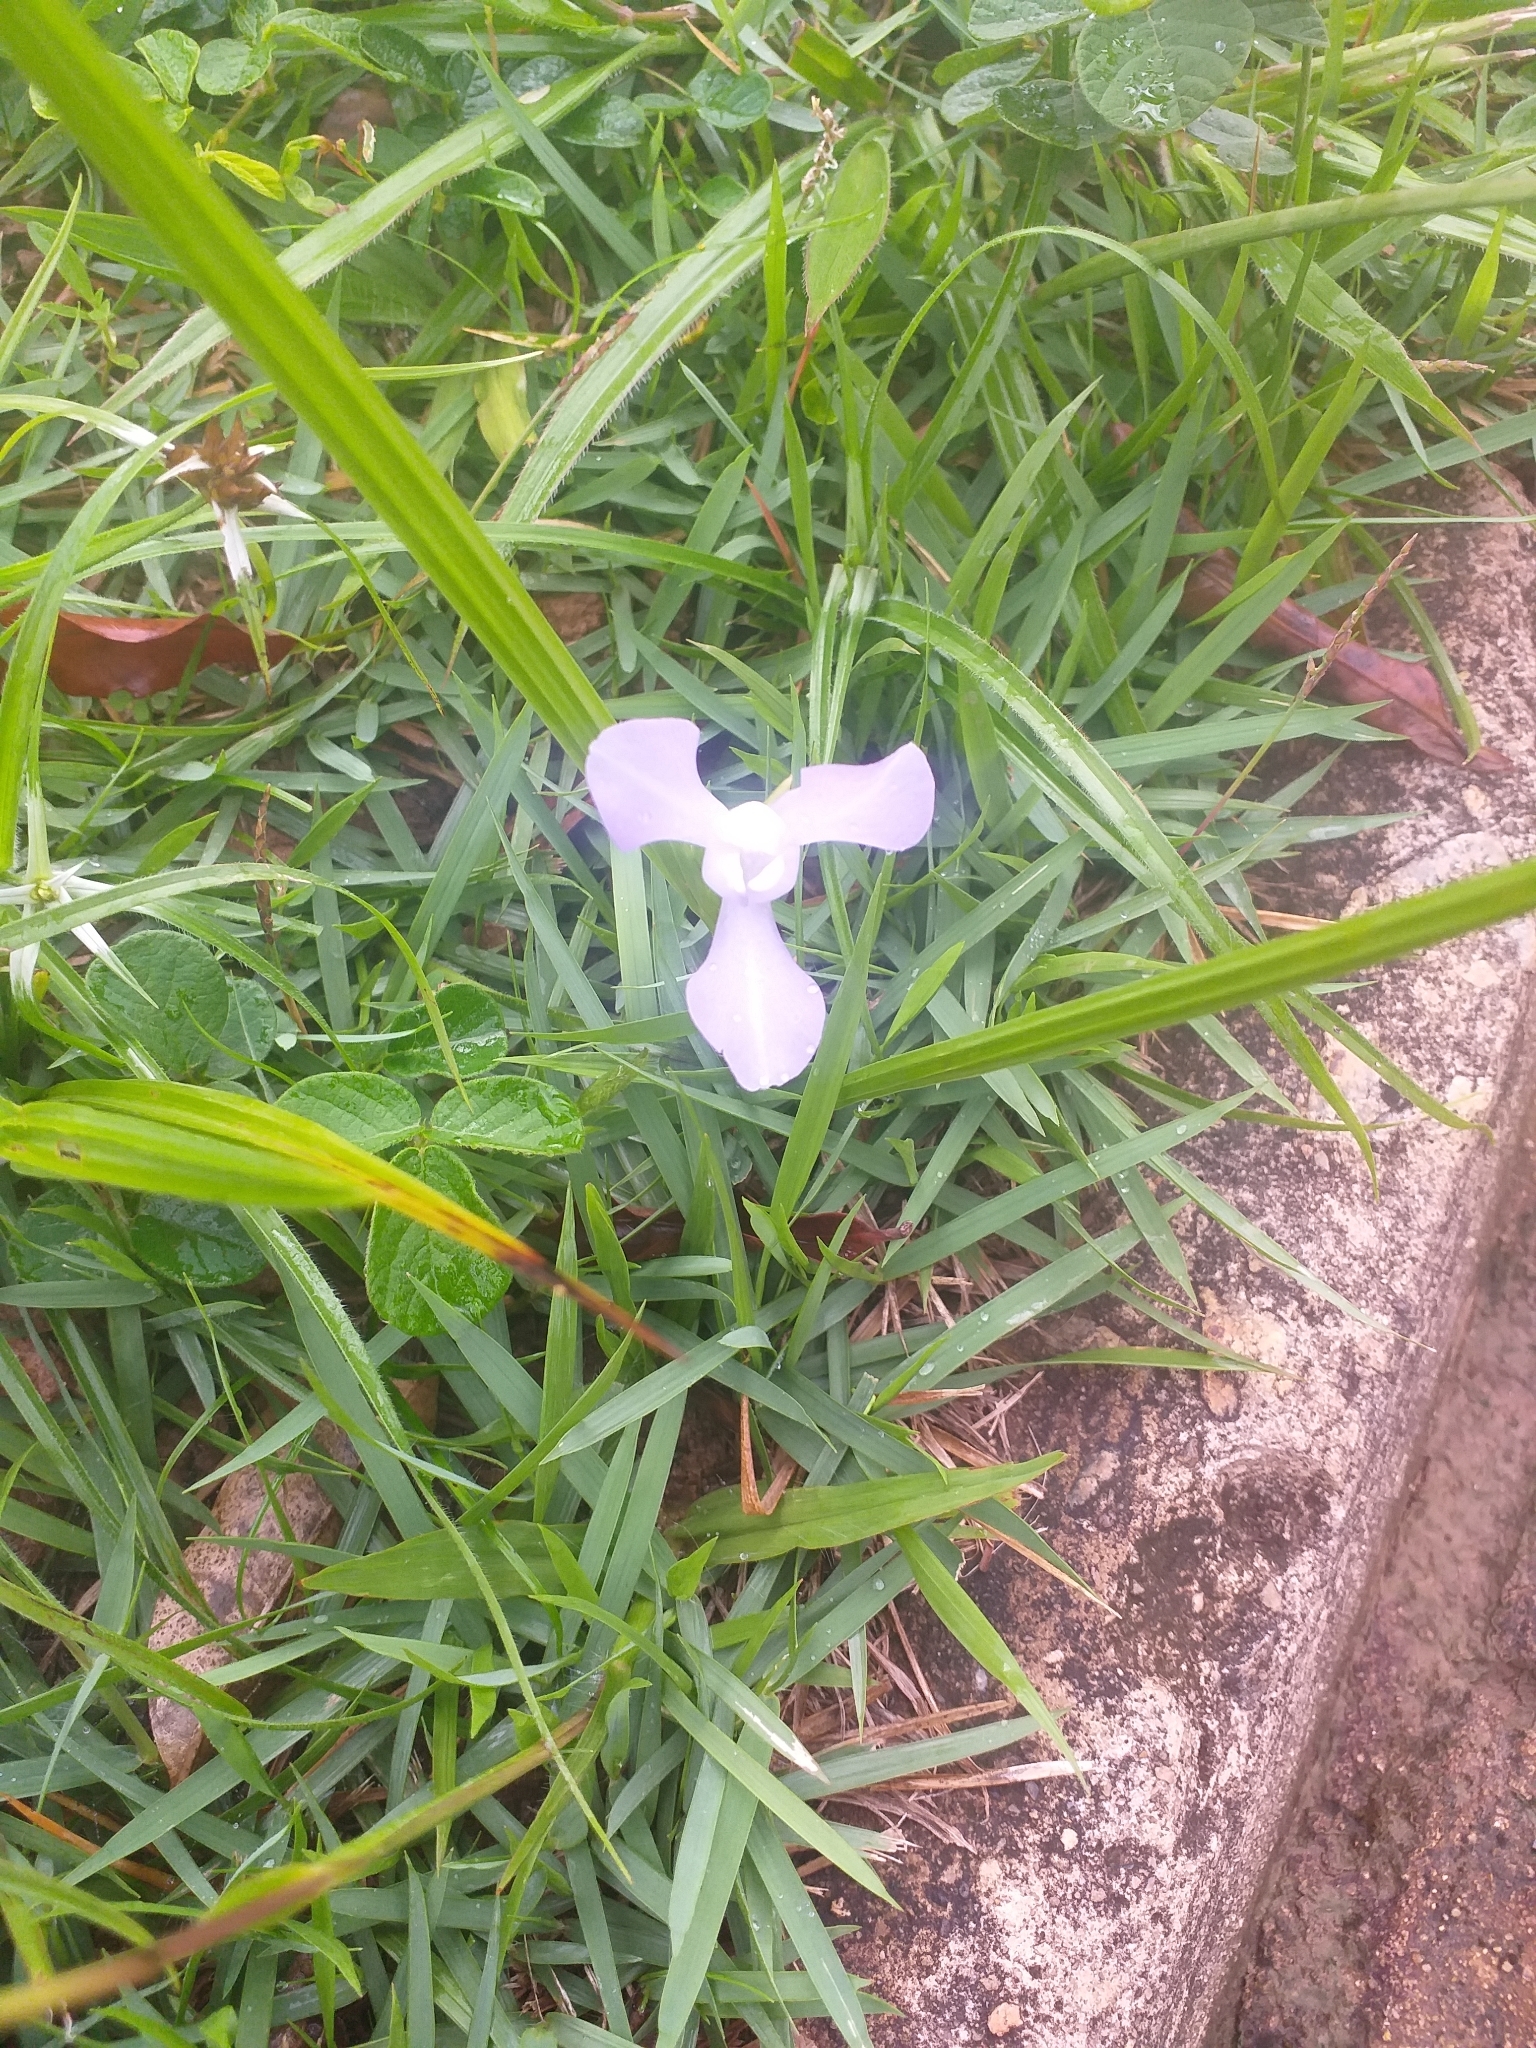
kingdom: Plantae
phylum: Tracheophyta
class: Liliopsida
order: Asparagales
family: Iridaceae
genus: Cipura
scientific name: Cipura paludosa
